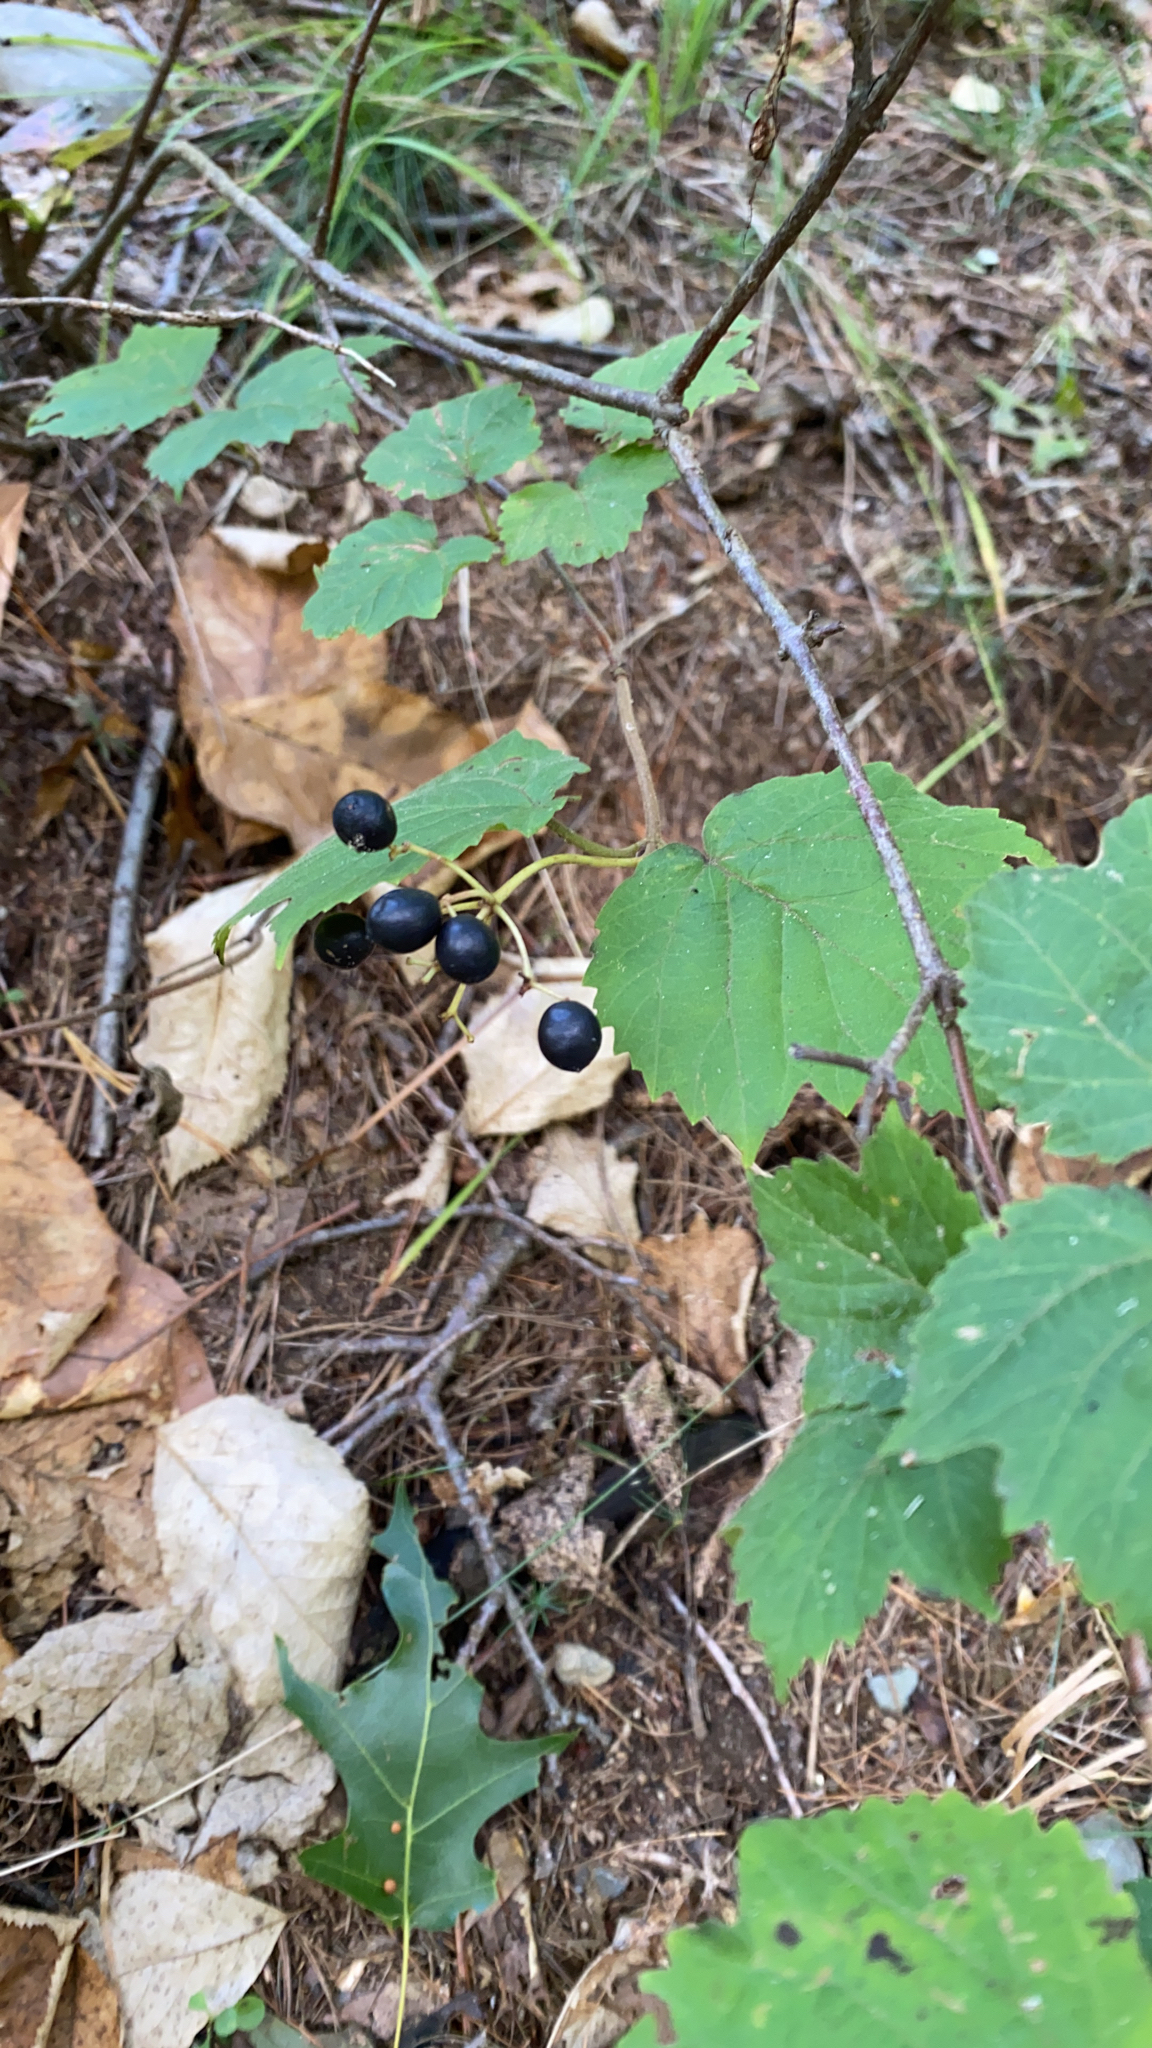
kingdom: Plantae
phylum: Tracheophyta
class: Magnoliopsida
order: Dipsacales
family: Viburnaceae
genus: Viburnum
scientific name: Viburnum acerifolium
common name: Dockmackie
